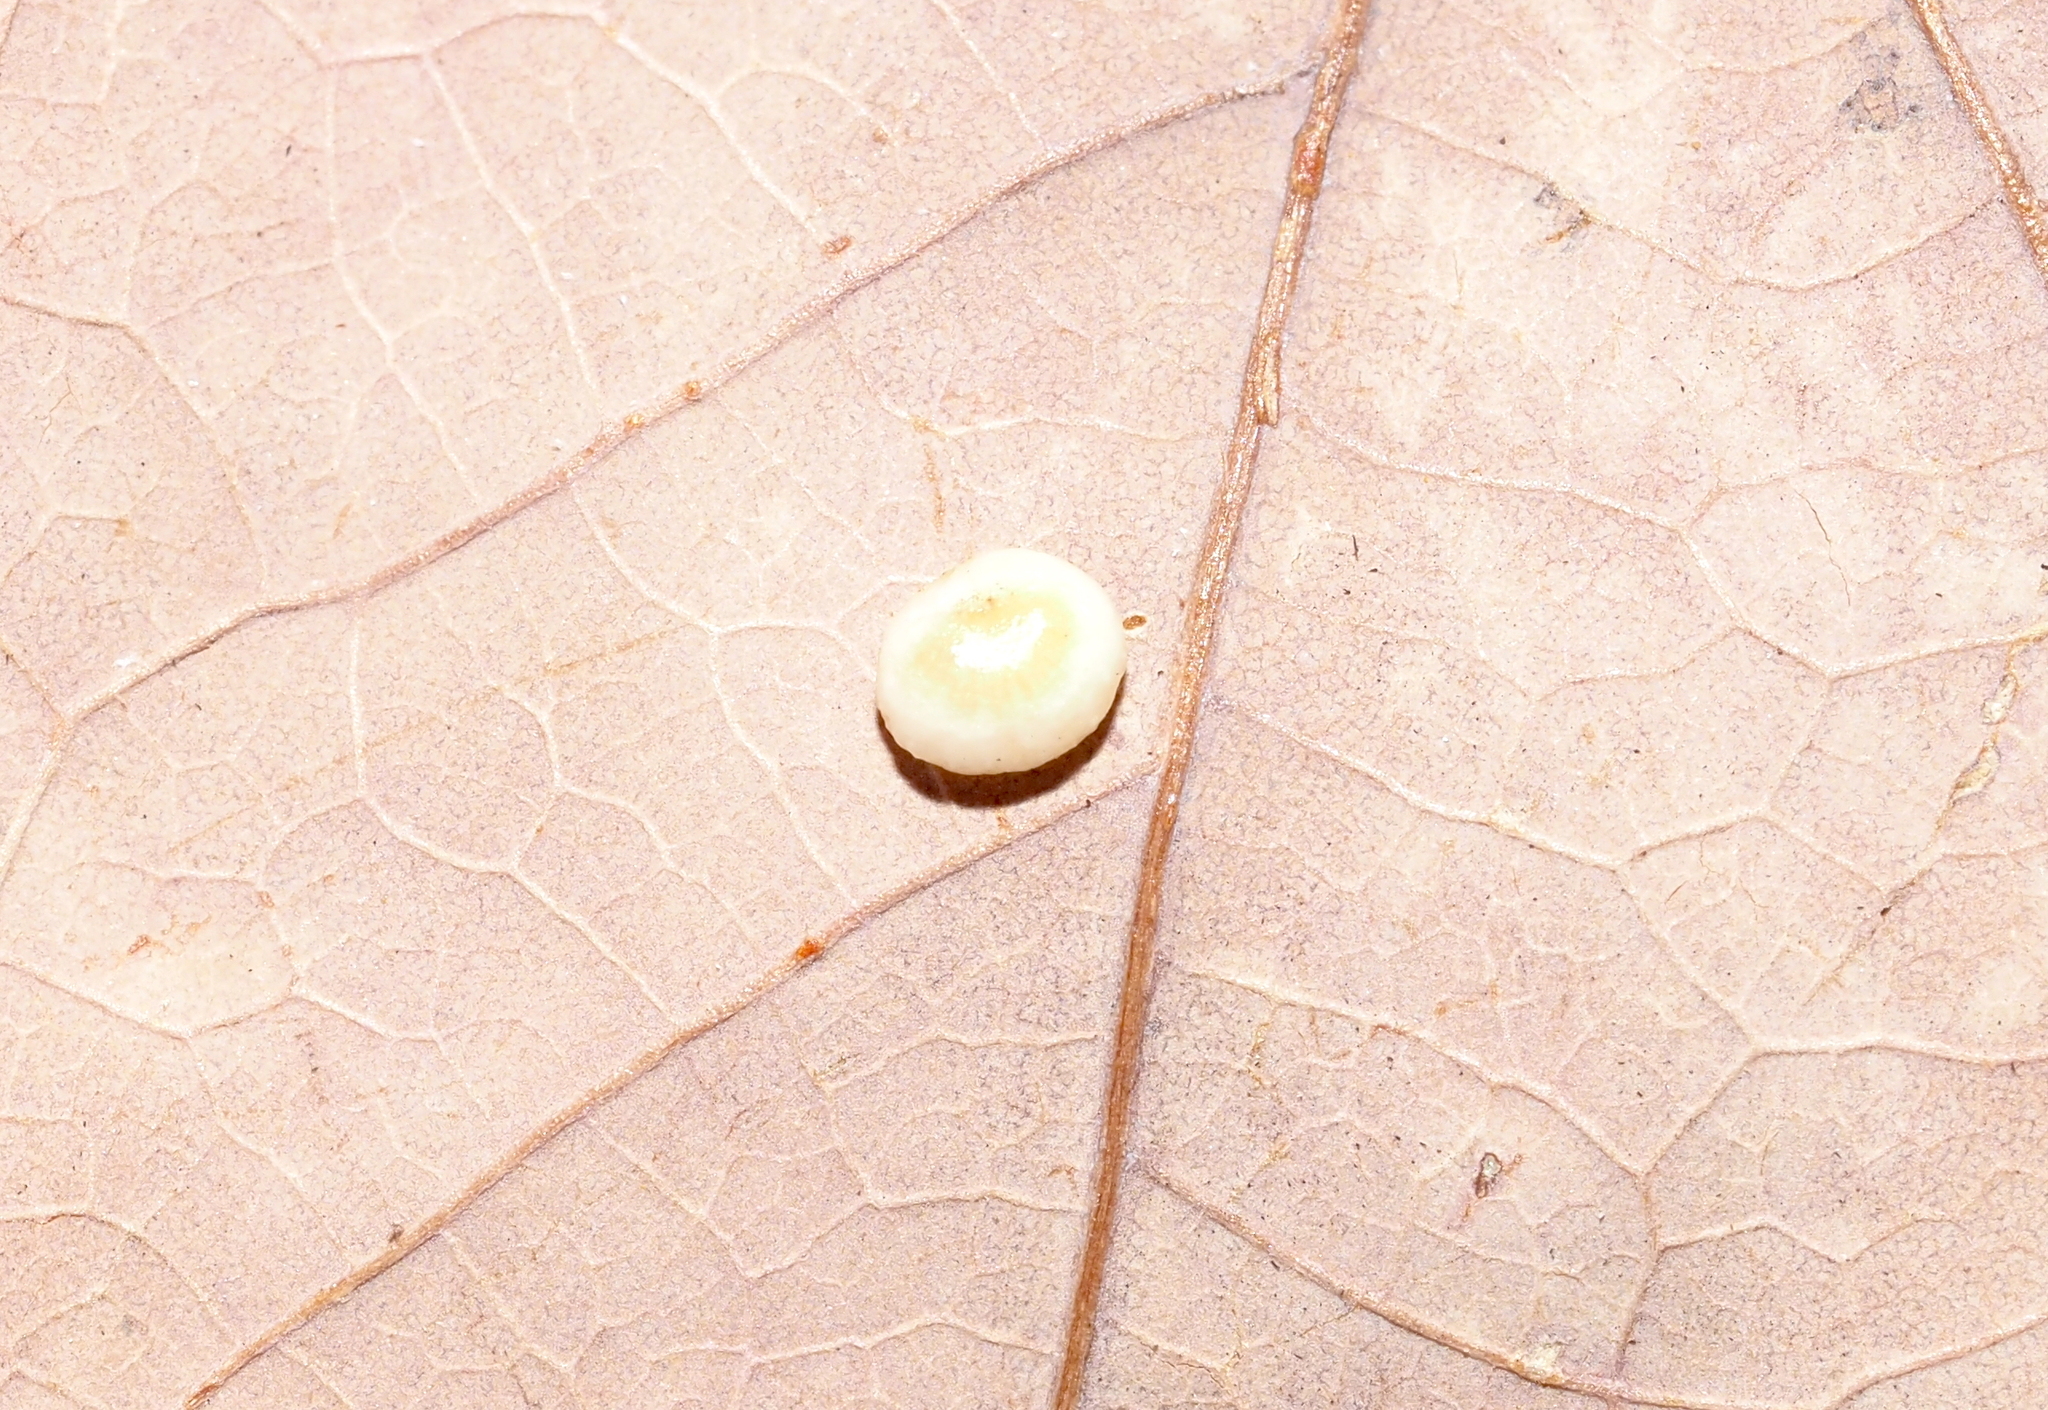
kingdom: Animalia
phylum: Arthropoda
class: Insecta
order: Hymenoptera
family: Cynipidae
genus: Phylloteras
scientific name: Phylloteras
